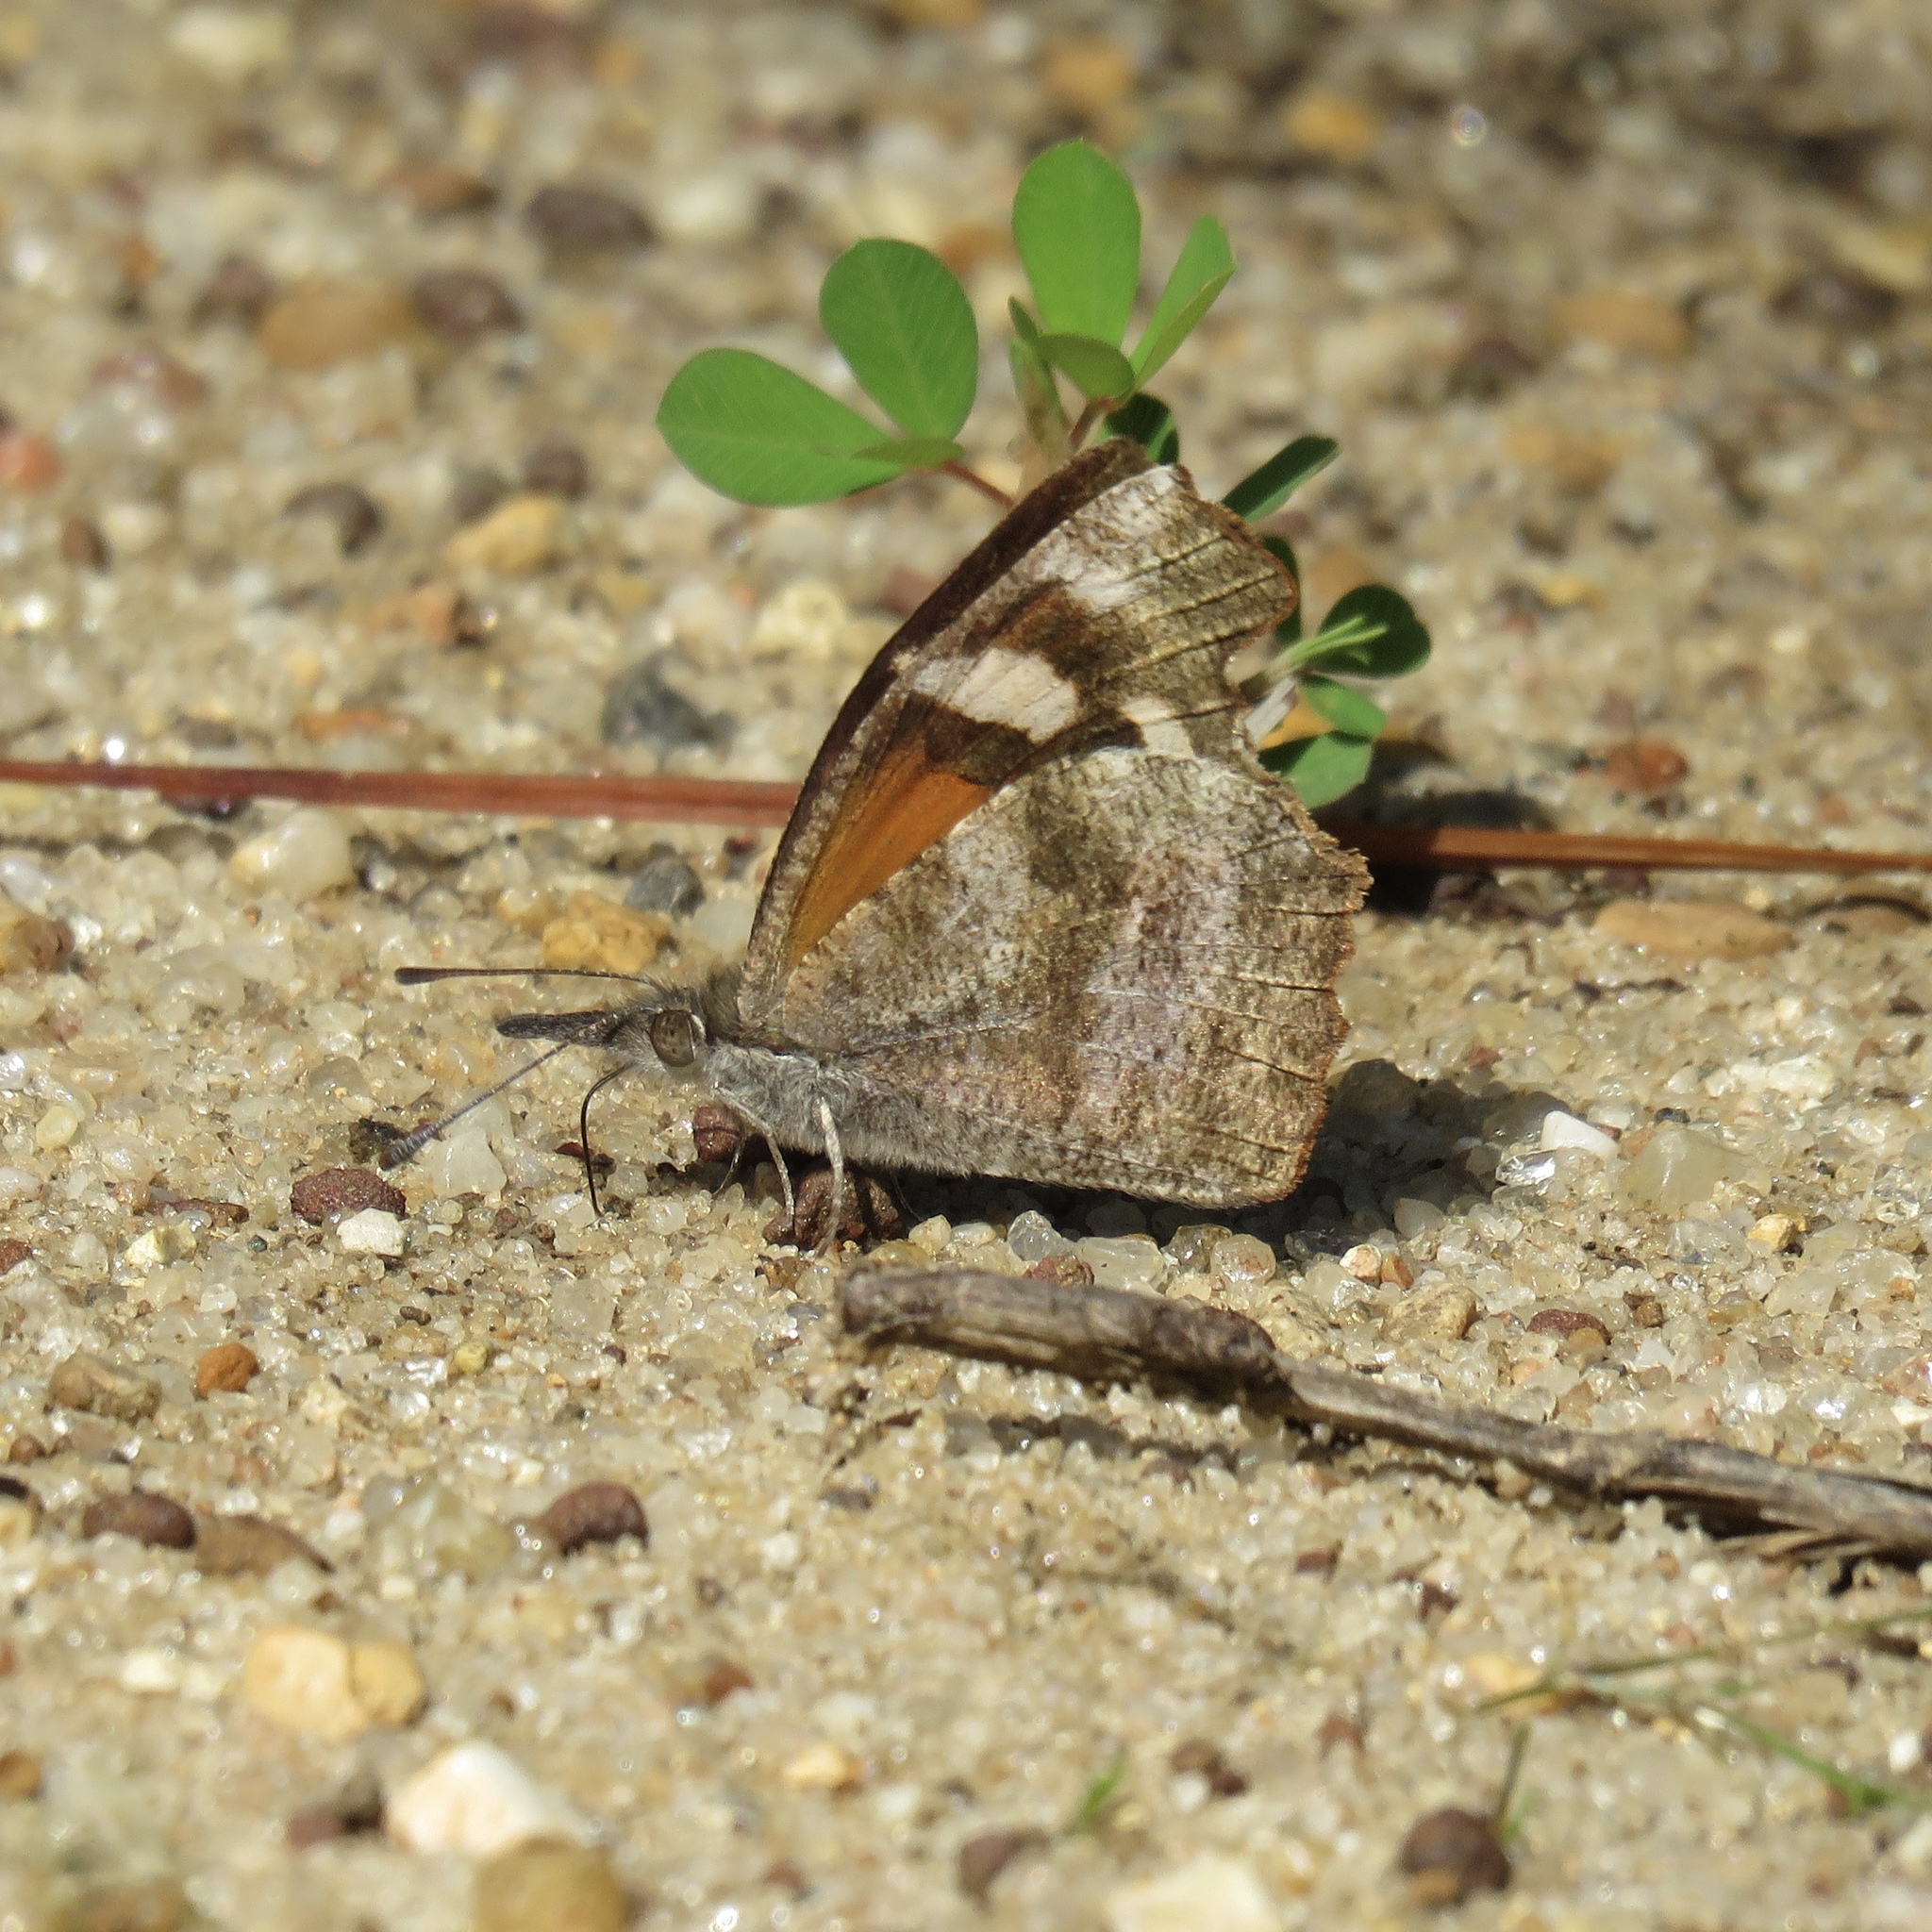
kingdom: Animalia
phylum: Arthropoda
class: Insecta
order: Lepidoptera
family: Nymphalidae
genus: Libytheana
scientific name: Libytheana carinenta
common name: American snout
